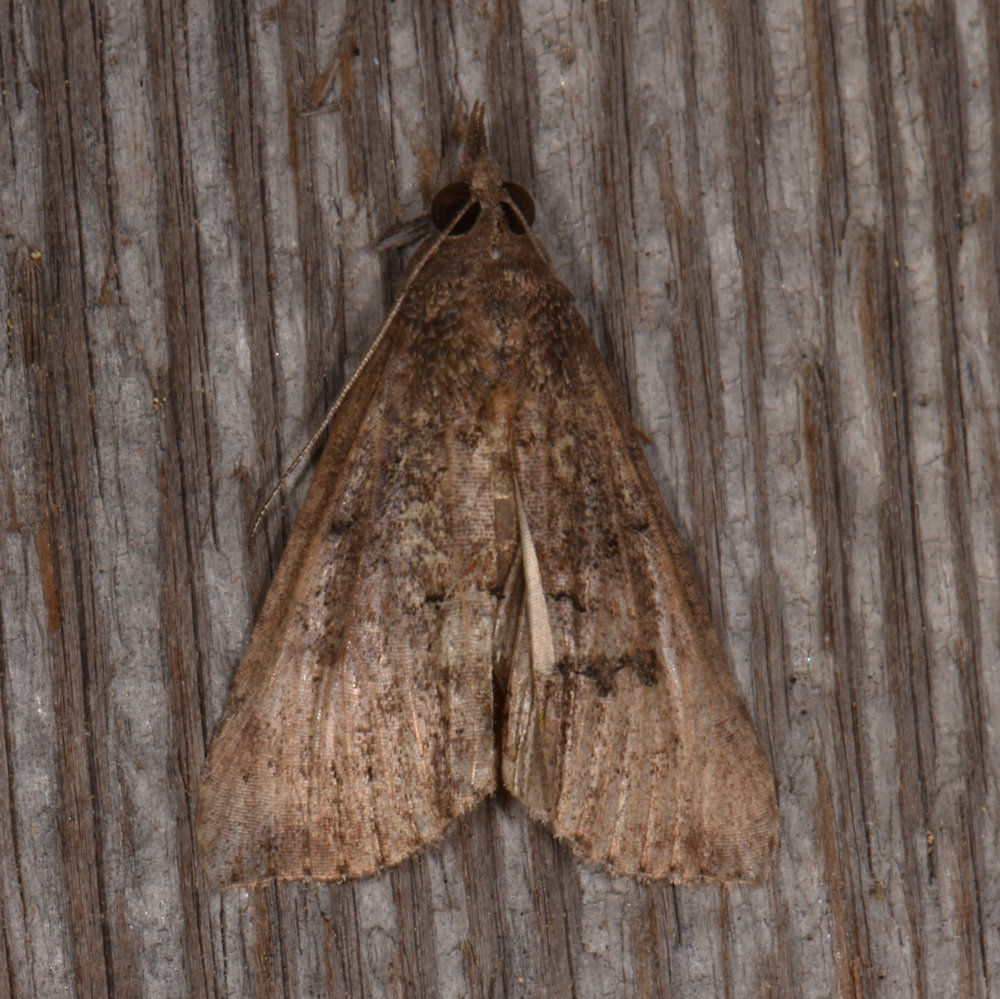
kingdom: Animalia
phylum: Arthropoda
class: Insecta
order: Lepidoptera
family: Erebidae
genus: Hypena
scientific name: Hypena scabra
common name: Green cloverworm
